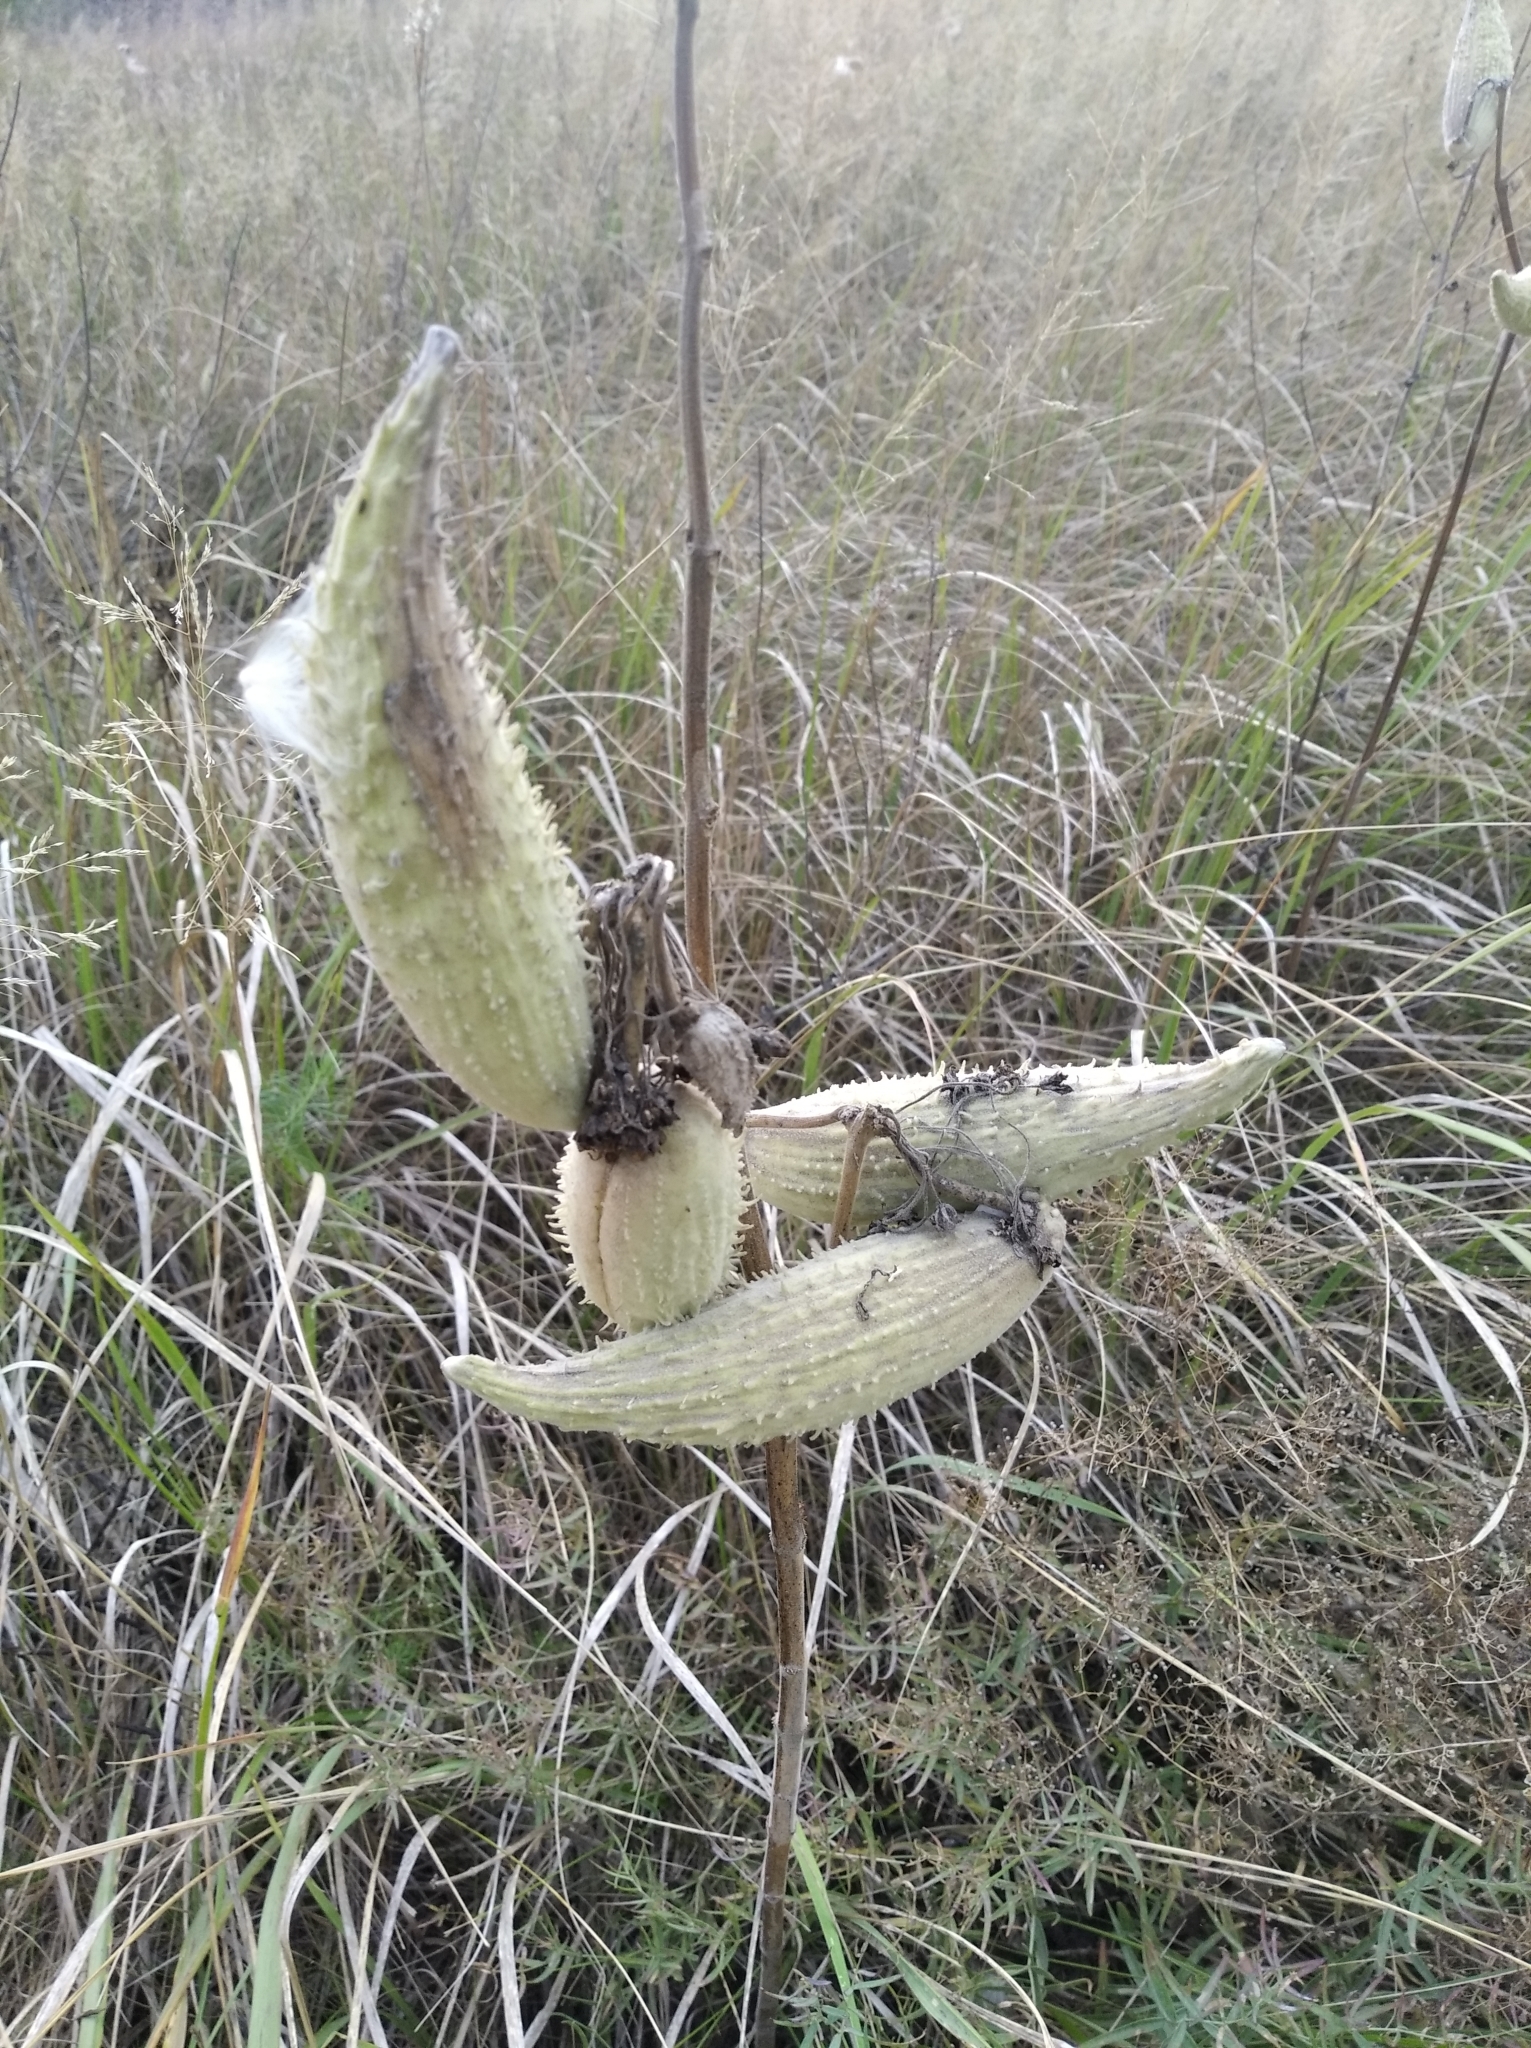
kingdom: Plantae
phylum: Tracheophyta
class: Magnoliopsida
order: Gentianales
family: Apocynaceae
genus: Asclepias
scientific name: Asclepias syriaca
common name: Common milkweed
